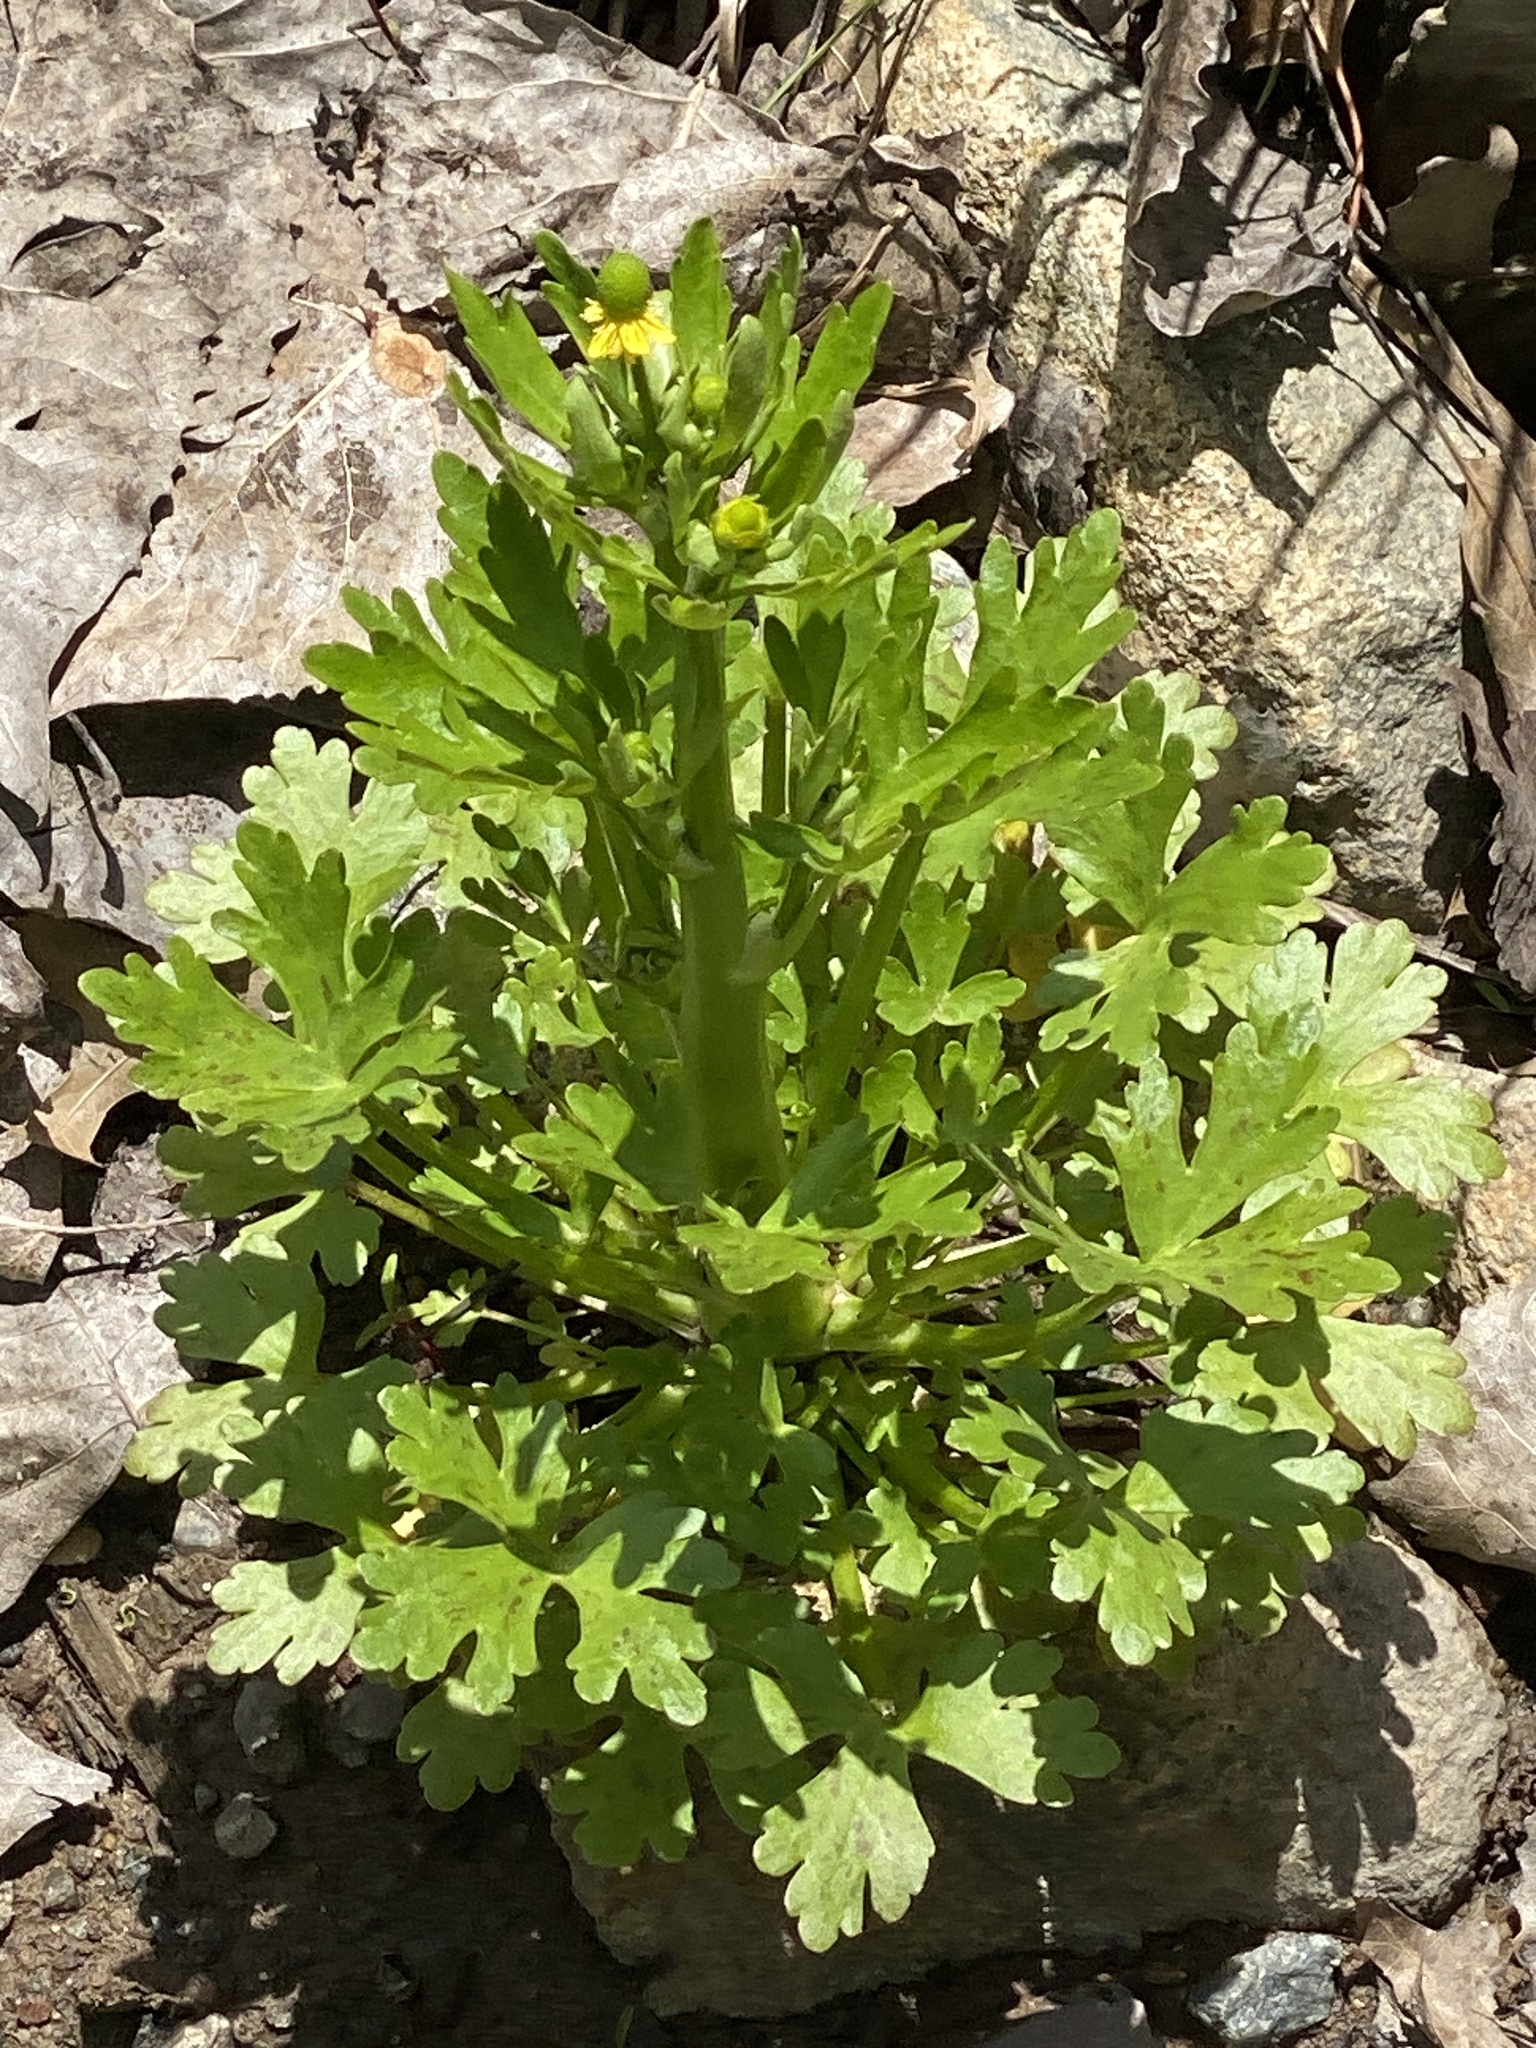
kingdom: Plantae
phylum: Tracheophyta
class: Magnoliopsida
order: Ranunculales
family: Ranunculaceae
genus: Ranunculus
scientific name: Ranunculus sceleratus
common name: Celery-leaved buttercup
